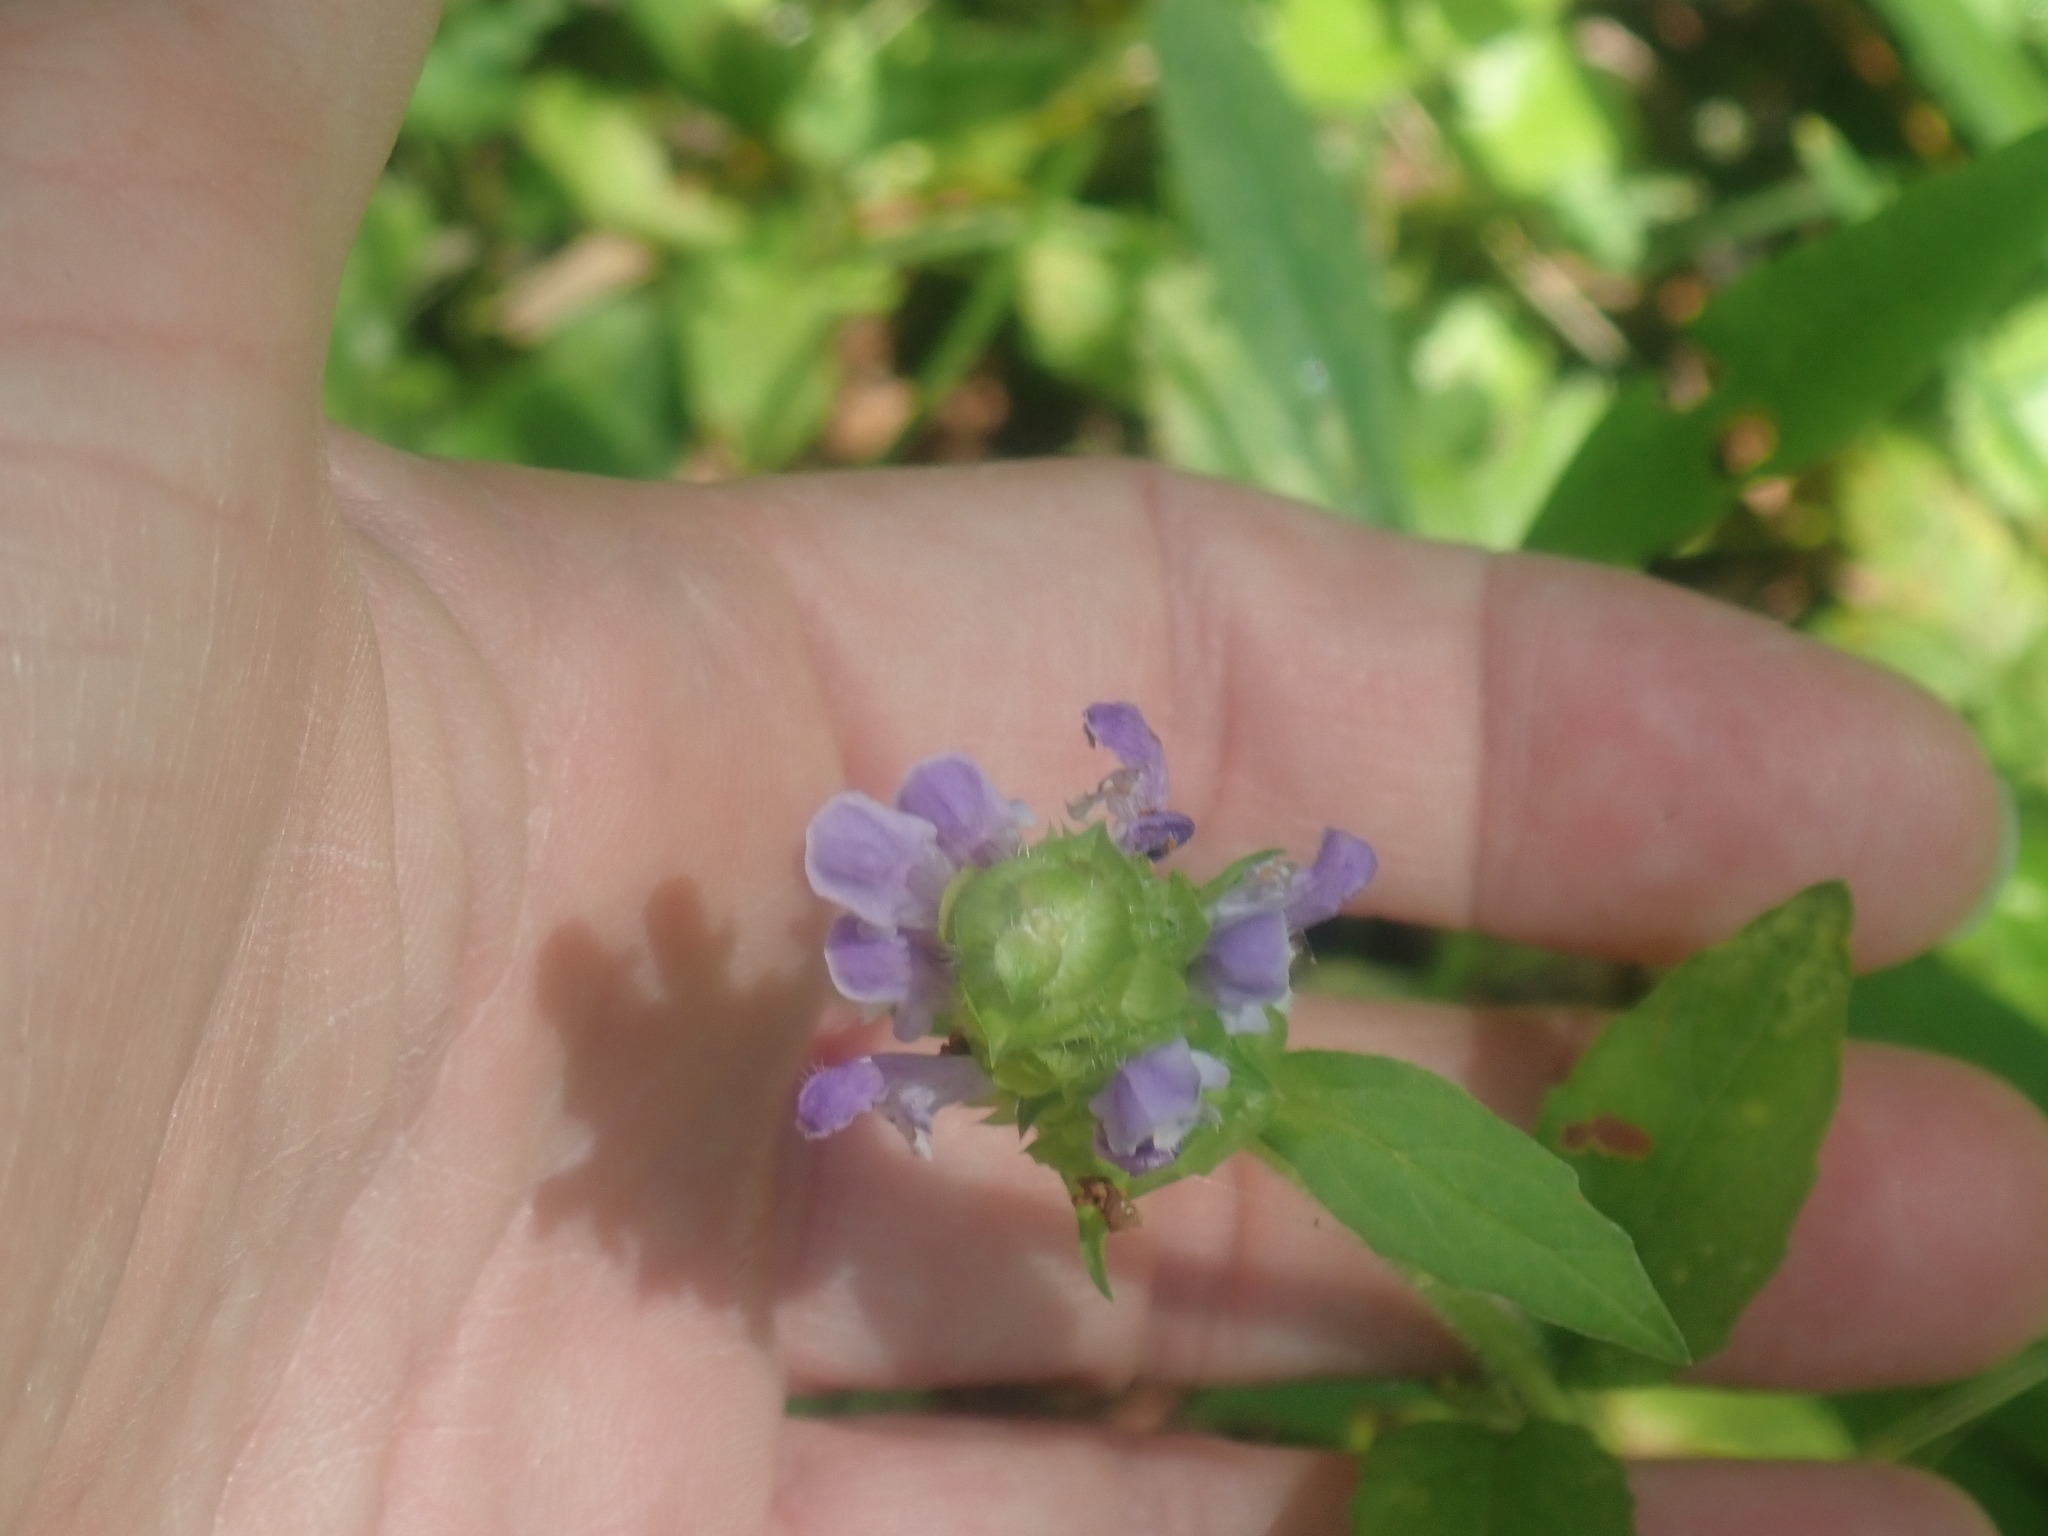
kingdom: Plantae
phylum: Tracheophyta
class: Magnoliopsida
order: Lamiales
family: Lamiaceae
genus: Prunella
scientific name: Prunella vulgaris
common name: Heal-all
